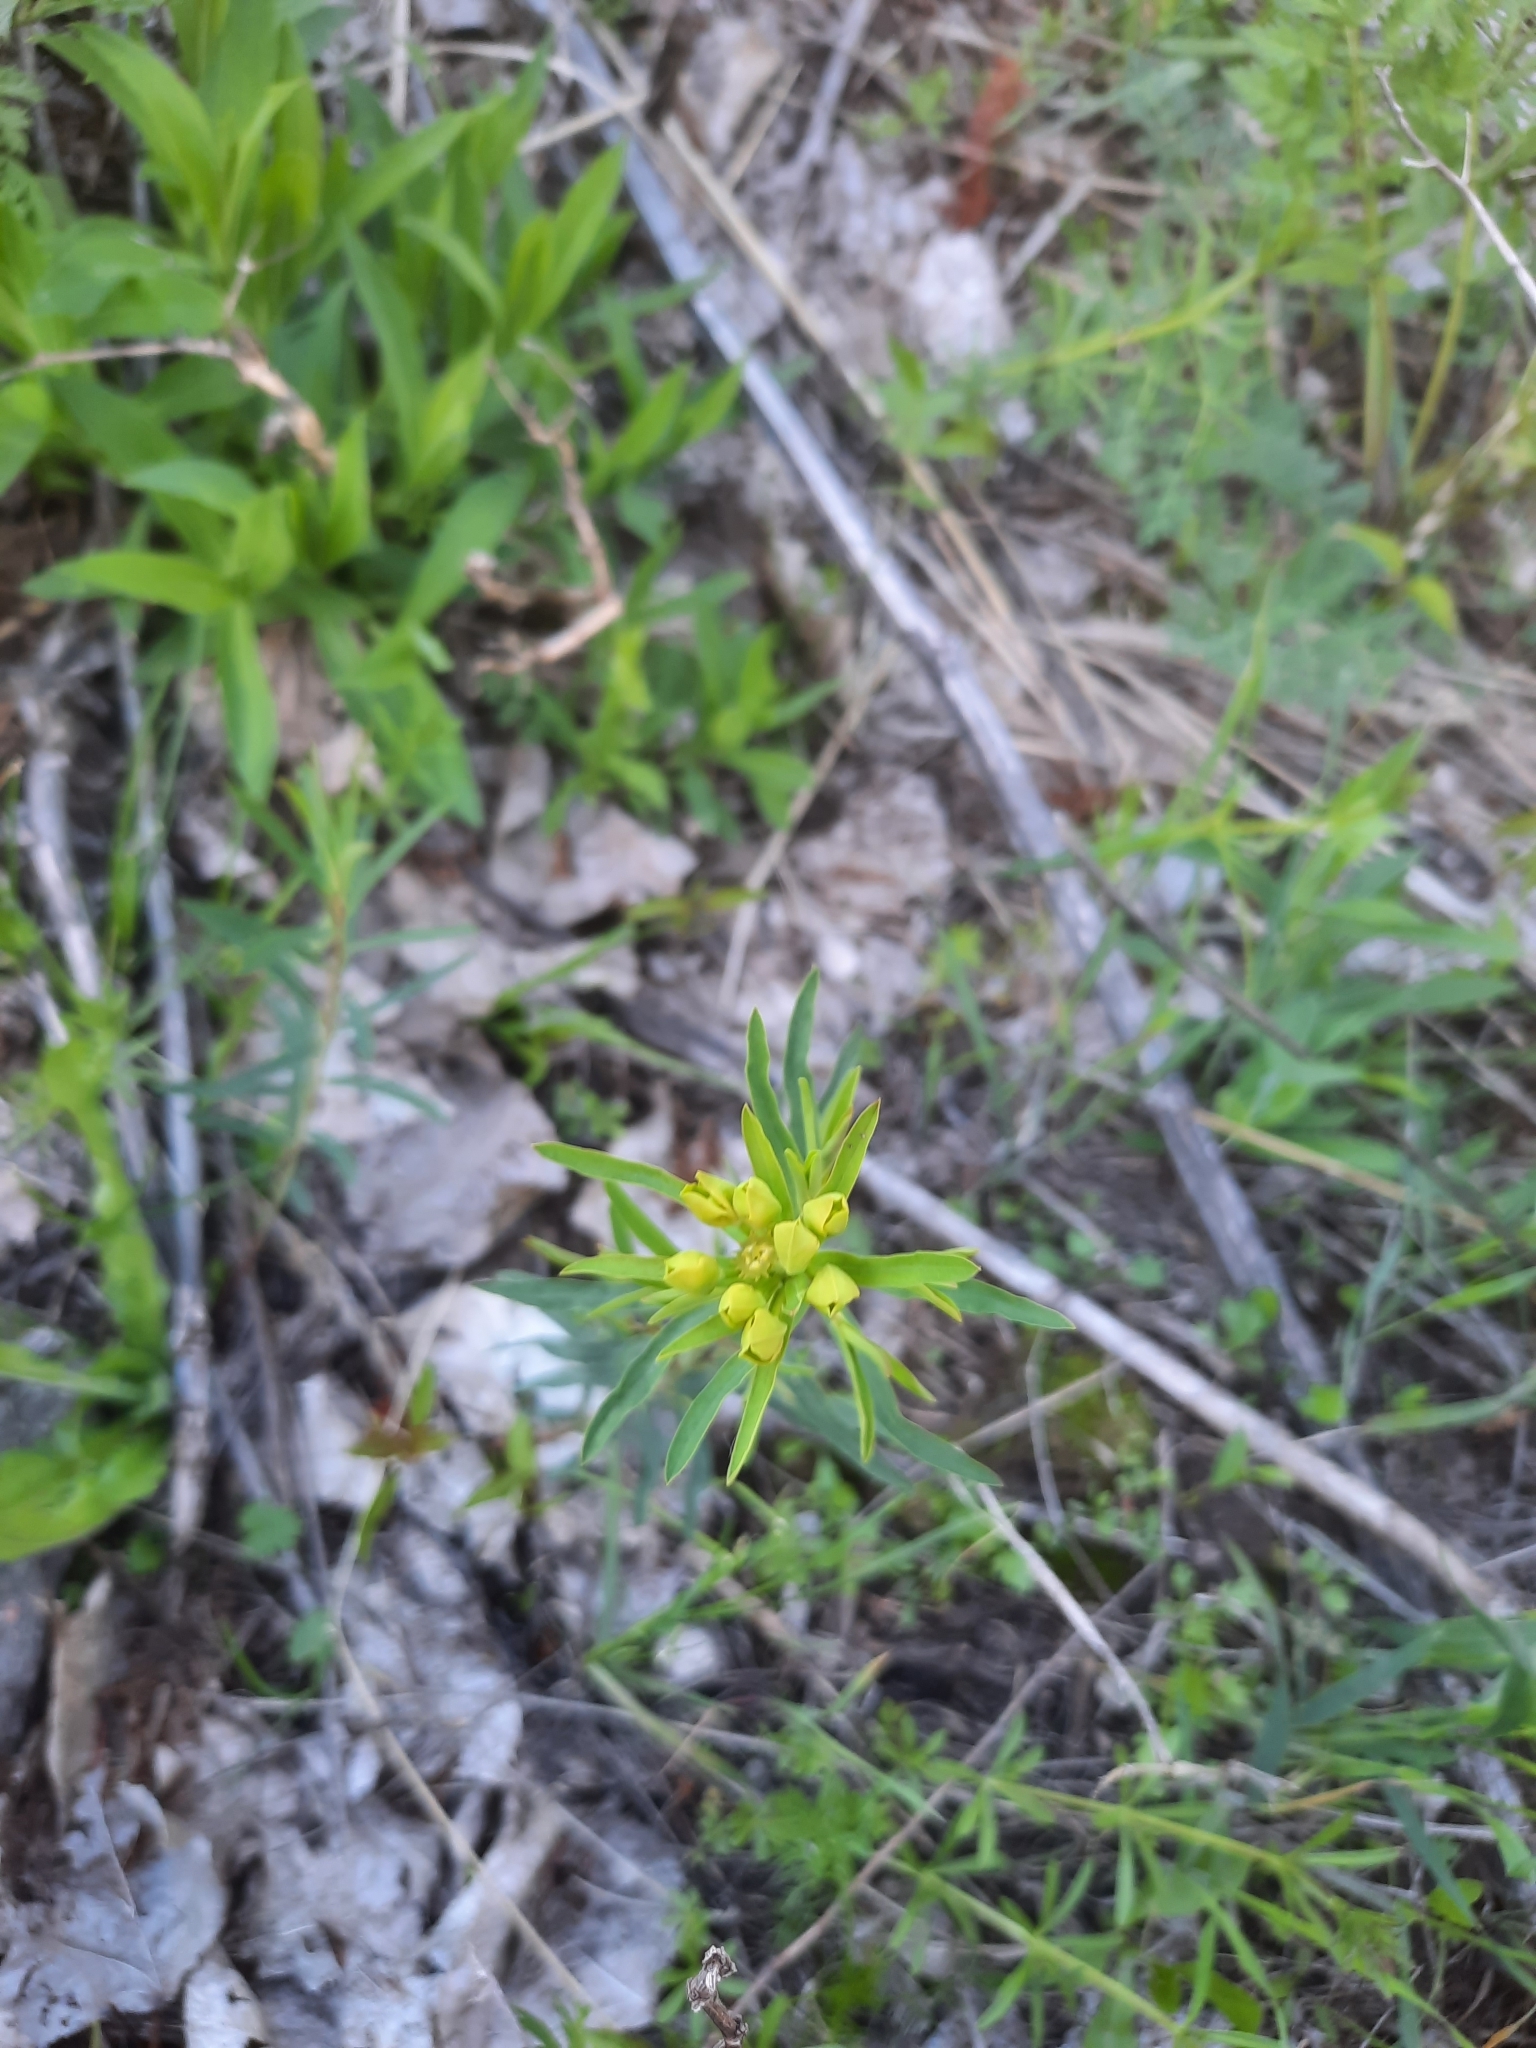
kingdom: Plantae
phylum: Tracheophyta
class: Magnoliopsida
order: Malpighiales
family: Euphorbiaceae
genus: Euphorbia
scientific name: Euphorbia virgata
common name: Leafy spurge
